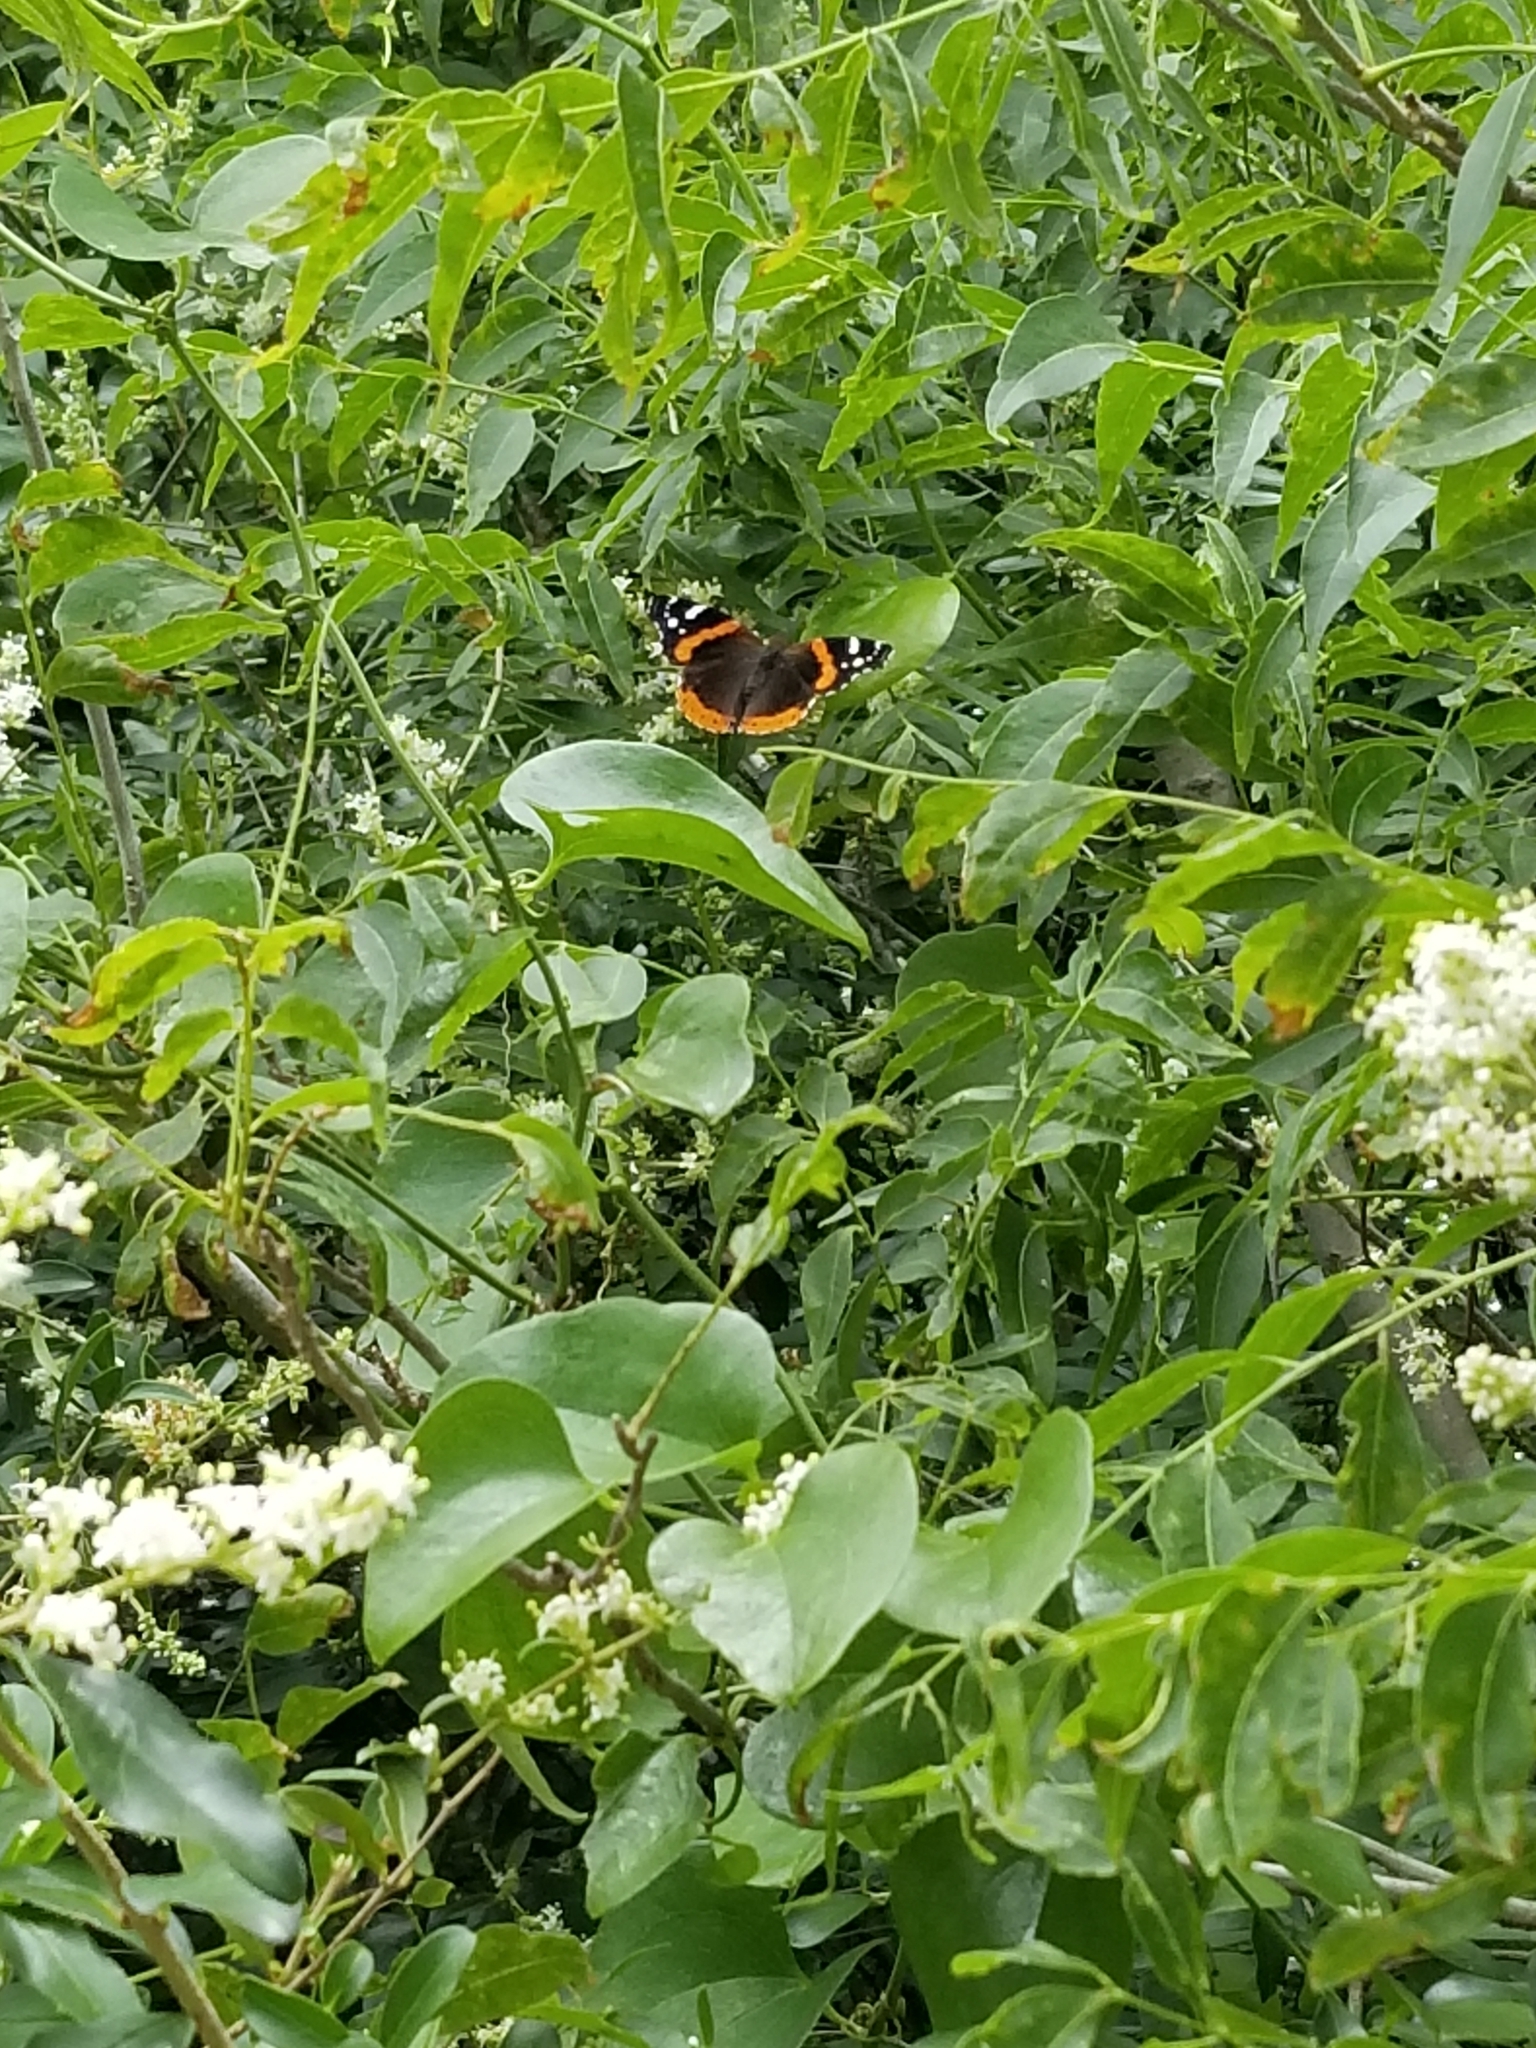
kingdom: Animalia
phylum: Arthropoda
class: Insecta
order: Lepidoptera
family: Nymphalidae
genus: Vanessa
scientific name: Vanessa atalanta
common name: Red admiral
